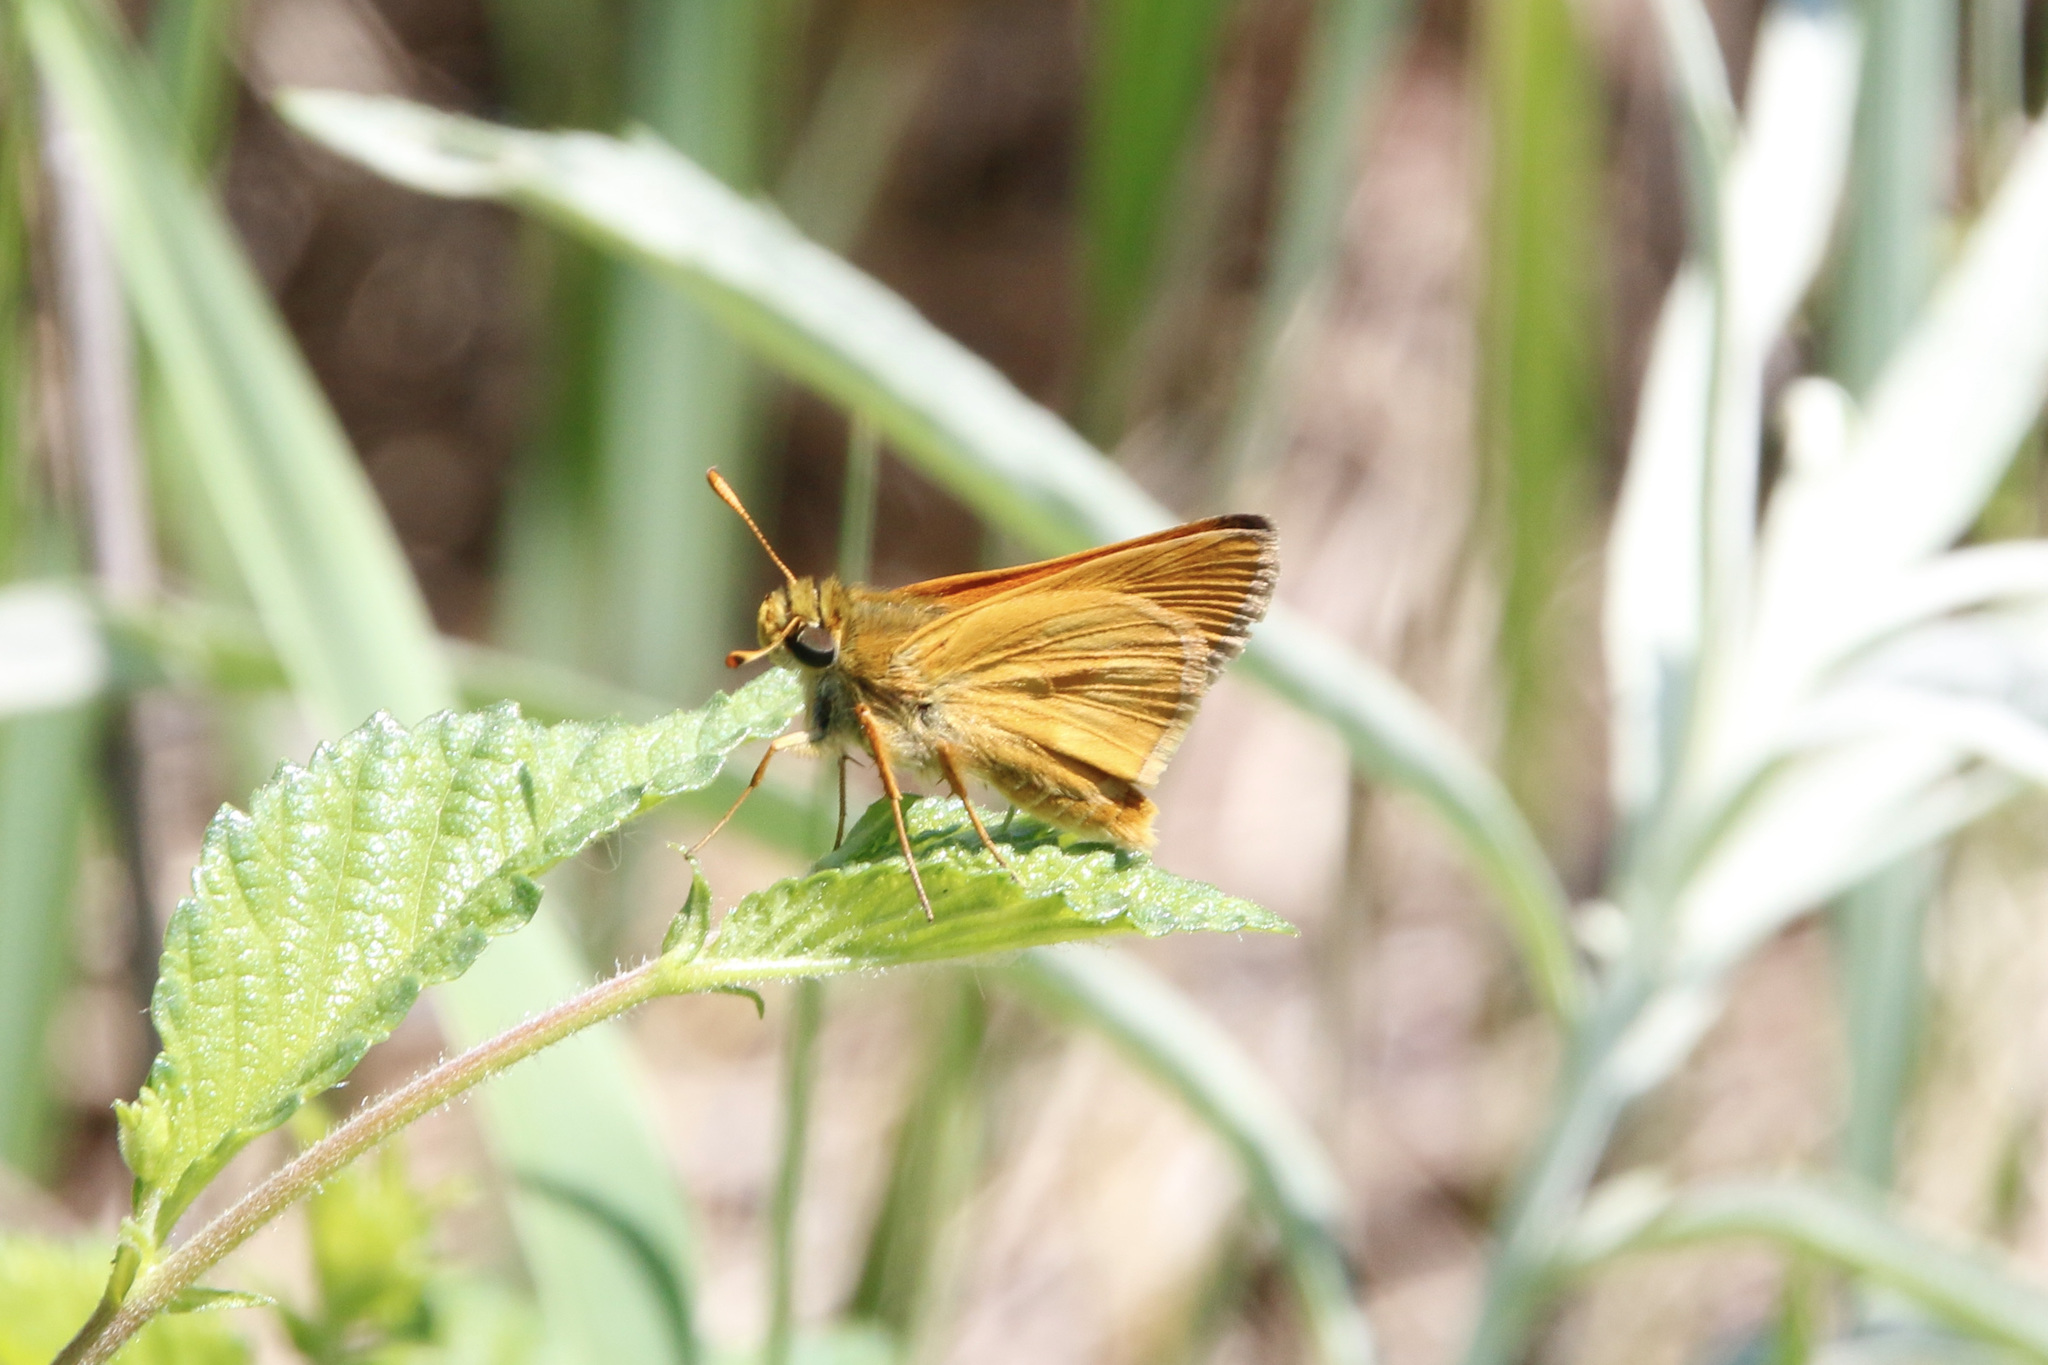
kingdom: Animalia
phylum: Arthropoda
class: Insecta
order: Lepidoptera
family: Hesperiidae
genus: Polites
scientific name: Polites mystic
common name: Long dash
